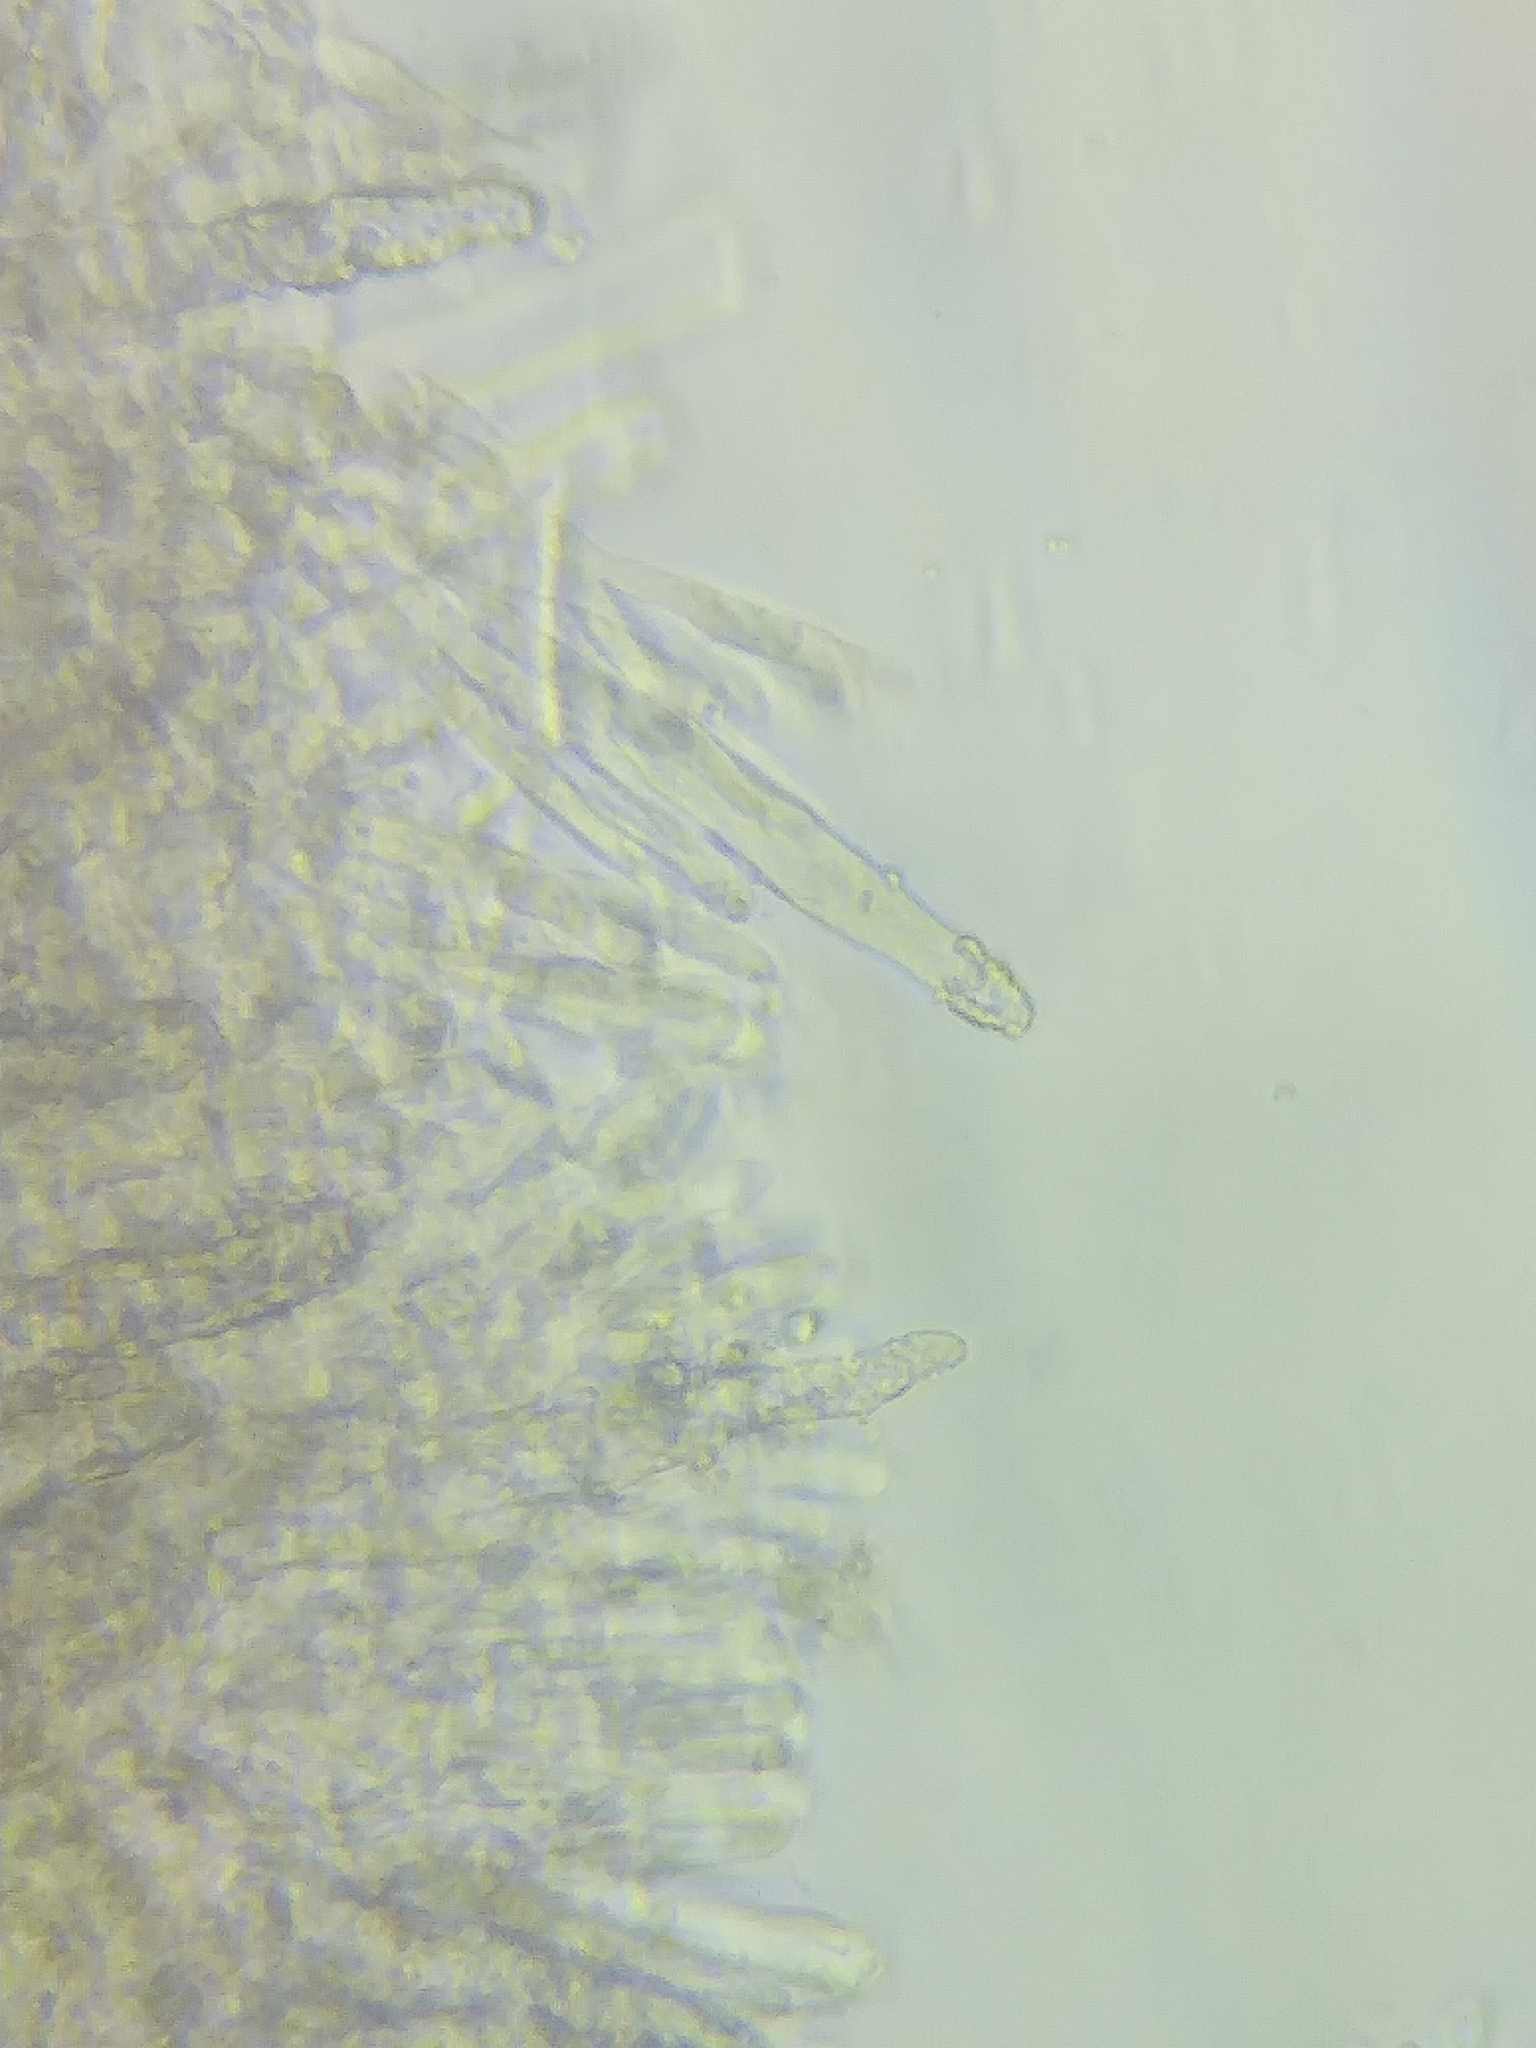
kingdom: Fungi
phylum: Basidiomycota
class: Agaricomycetes
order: Polyporales
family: Phanerochaetaceae
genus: Phanerochaete
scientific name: Phanerochaete livescens
